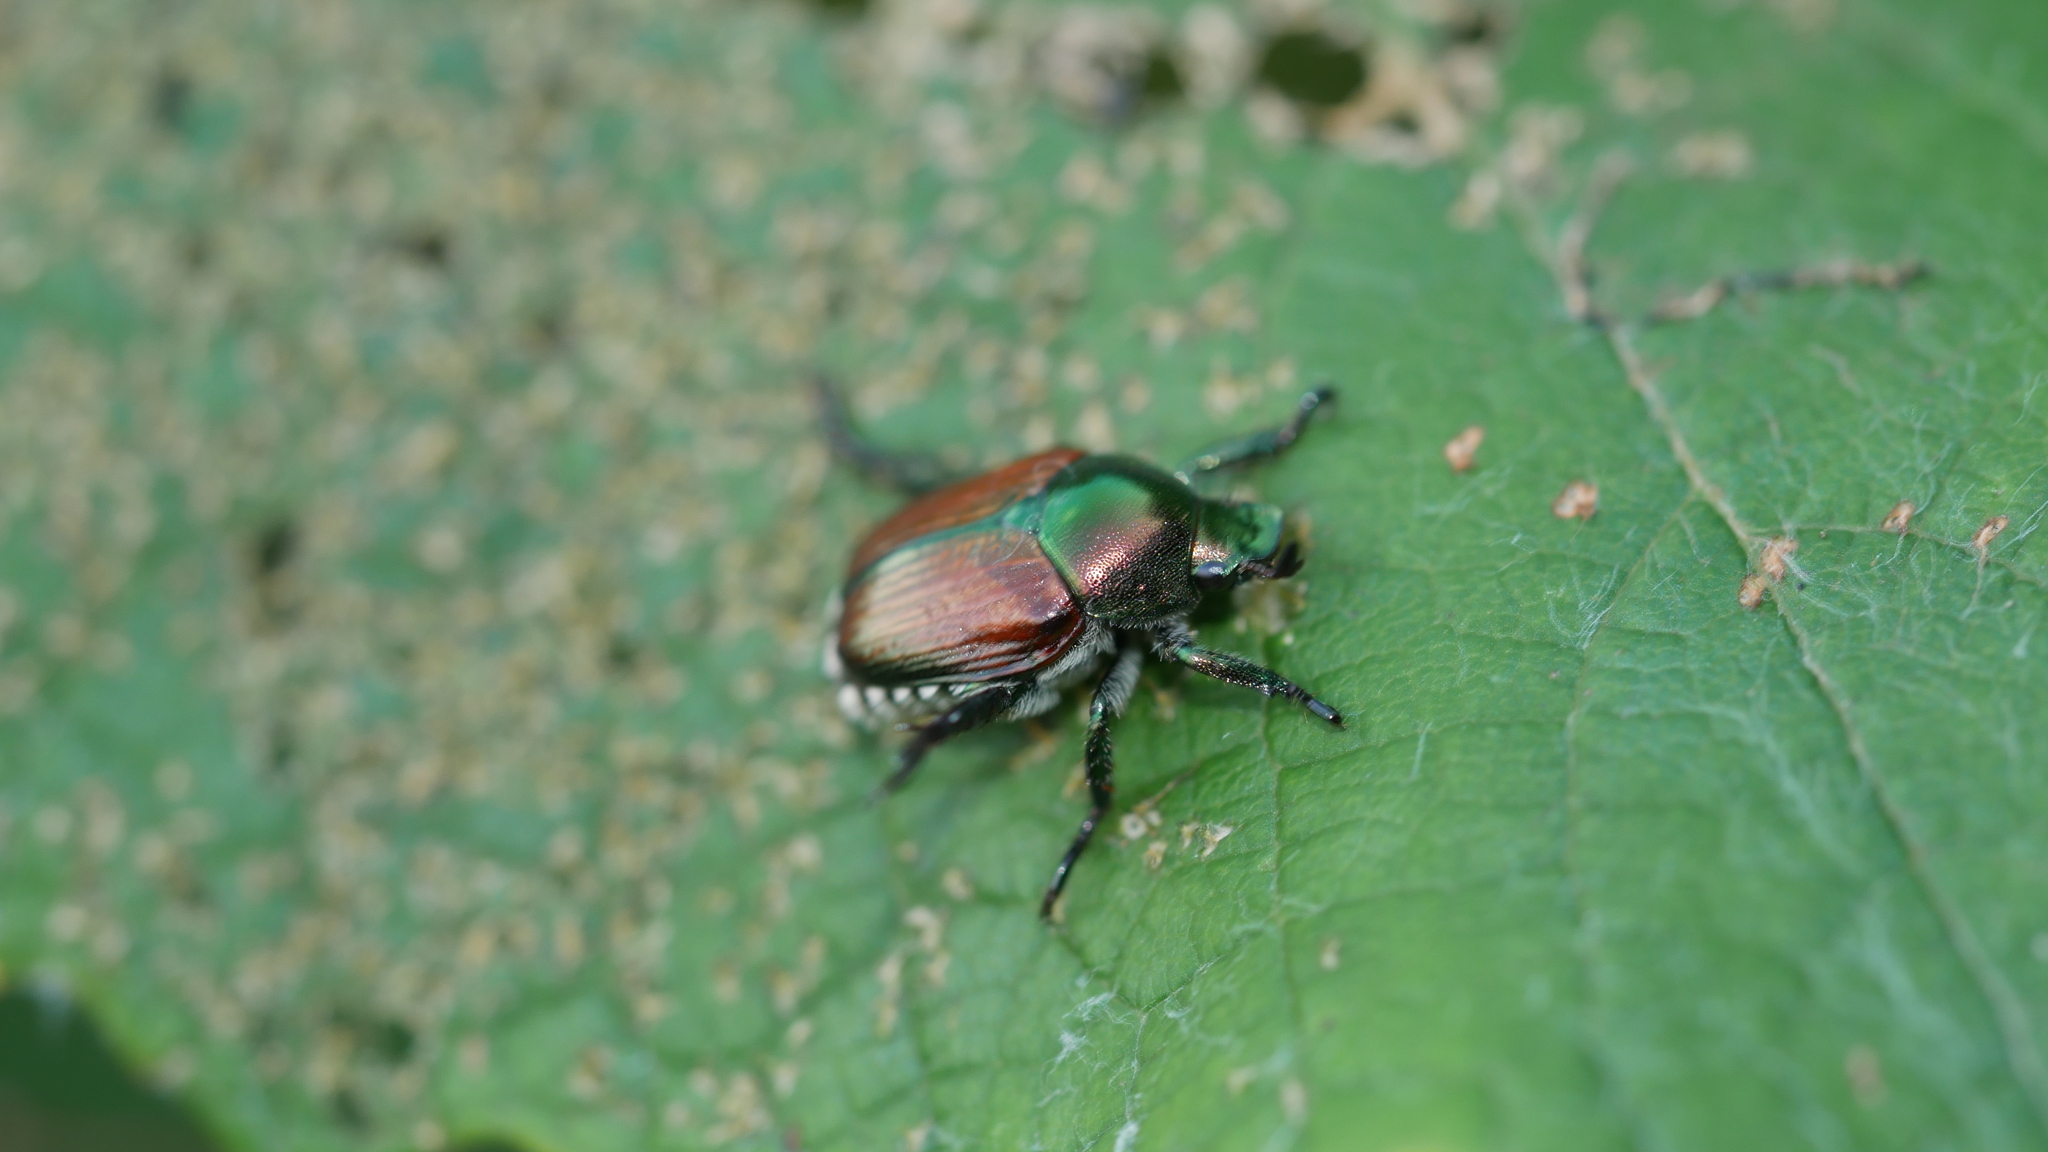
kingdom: Animalia
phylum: Arthropoda
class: Insecta
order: Coleoptera
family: Scarabaeidae
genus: Popillia
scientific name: Popillia japonica
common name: Japanese beetle
